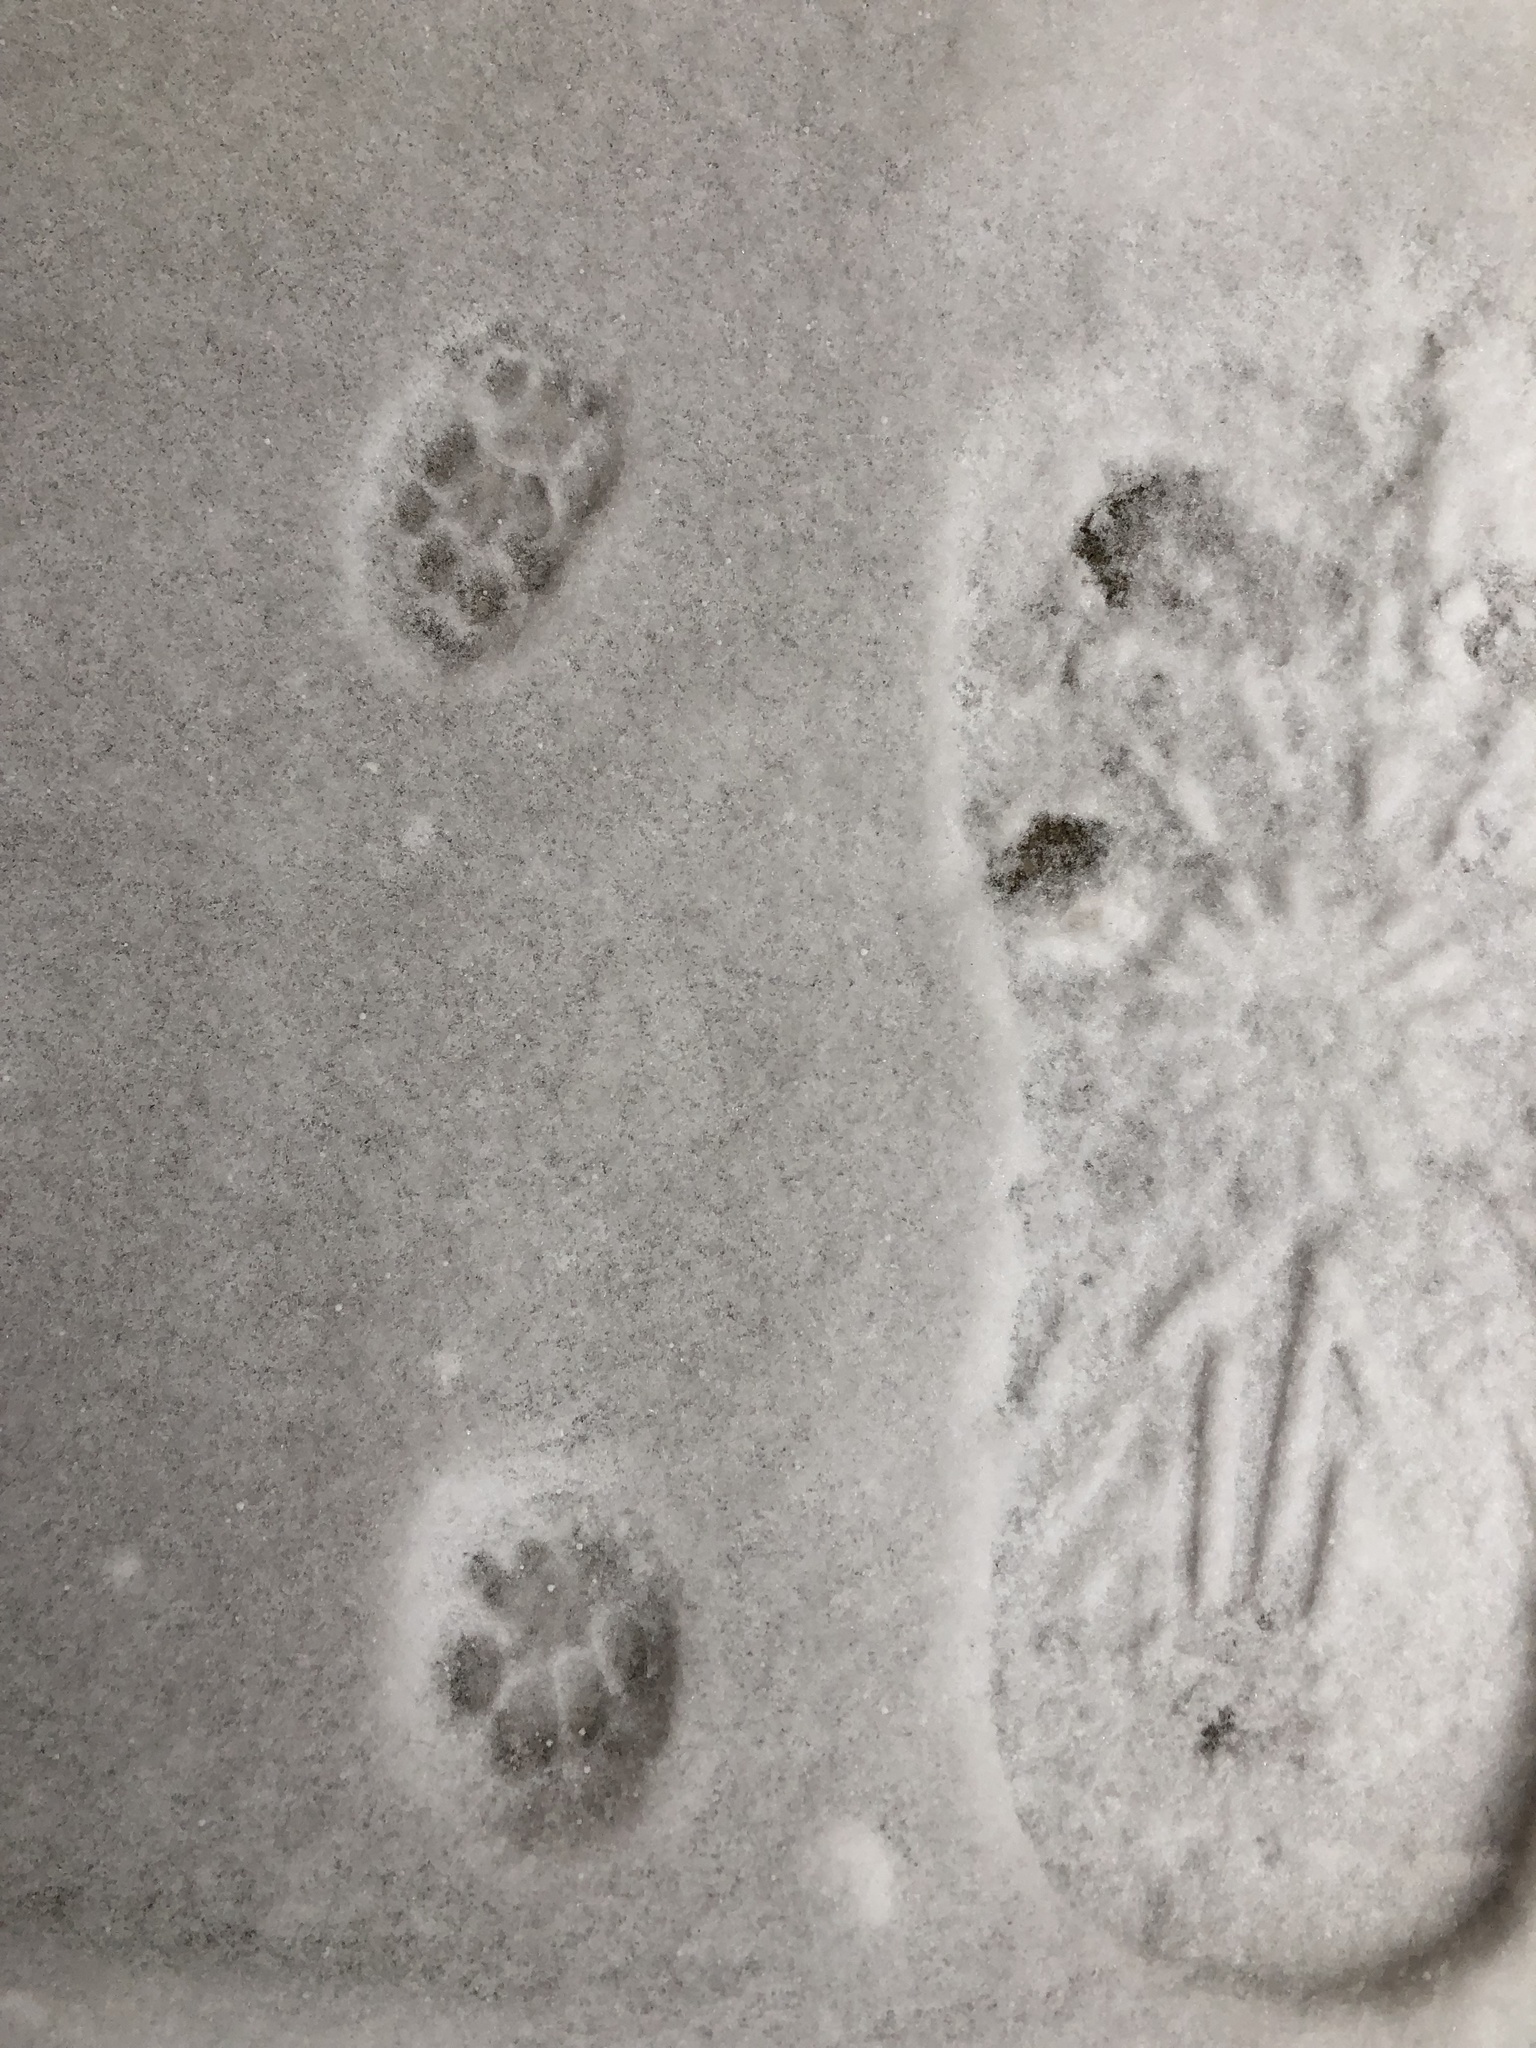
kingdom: Animalia
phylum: Chordata
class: Mammalia
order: Carnivora
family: Felidae
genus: Felis
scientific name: Felis catus
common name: Domestic cat
